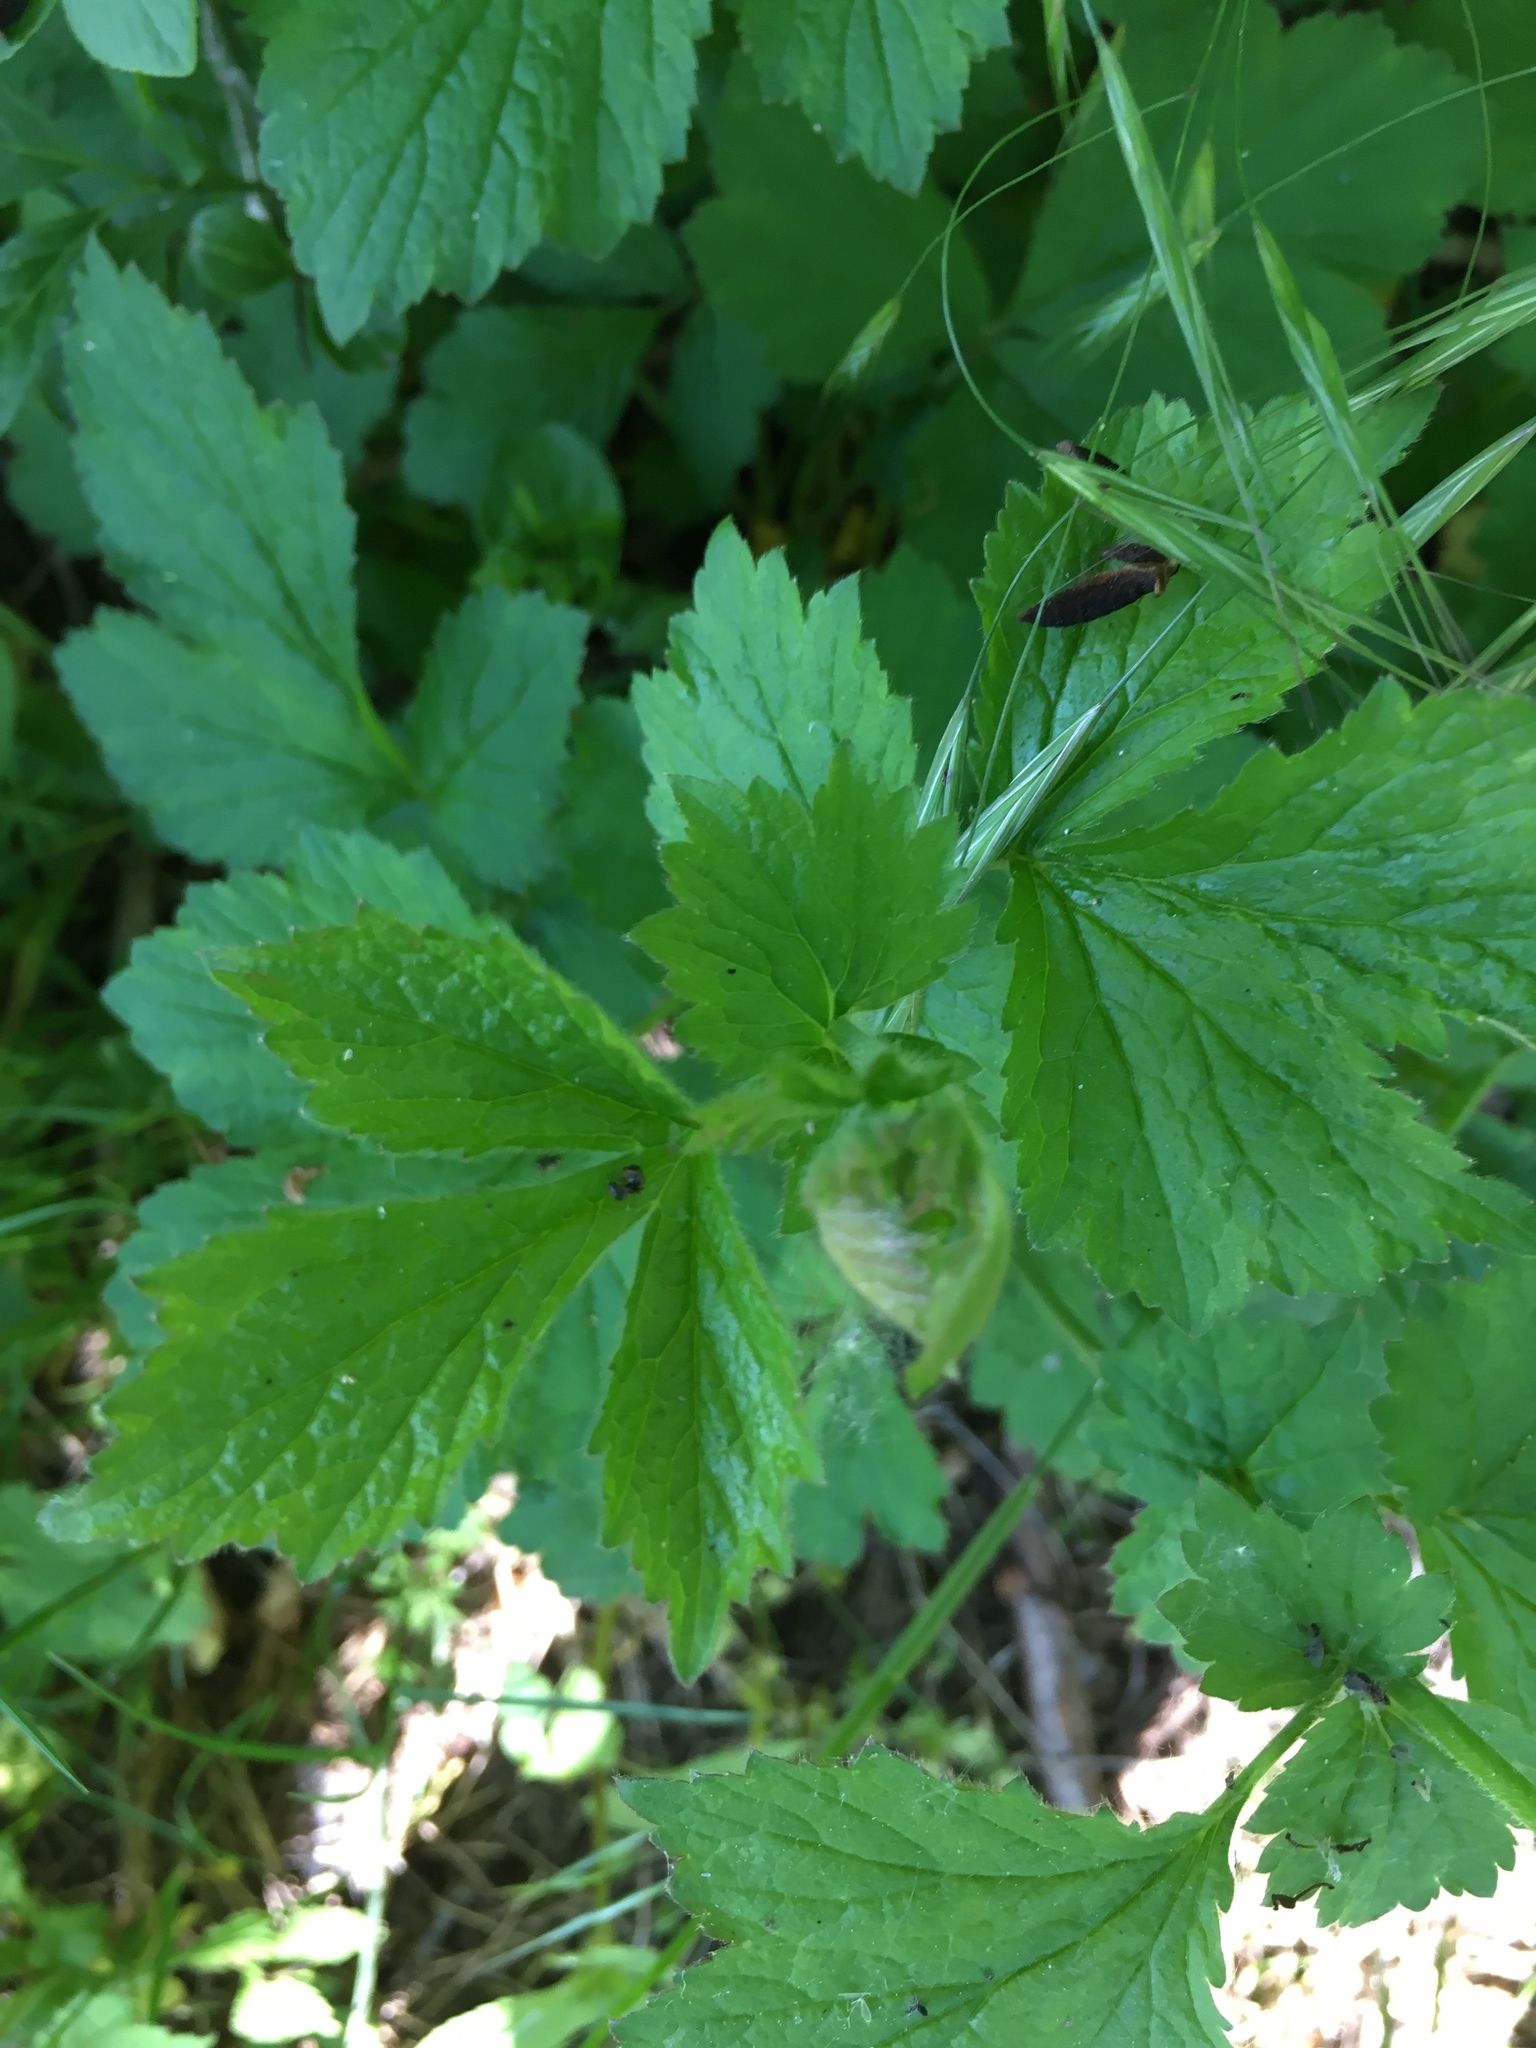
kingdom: Plantae
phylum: Tracheophyta
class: Magnoliopsida
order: Rosales
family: Rosaceae
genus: Geum
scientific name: Geum urbanum
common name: Wood avens
